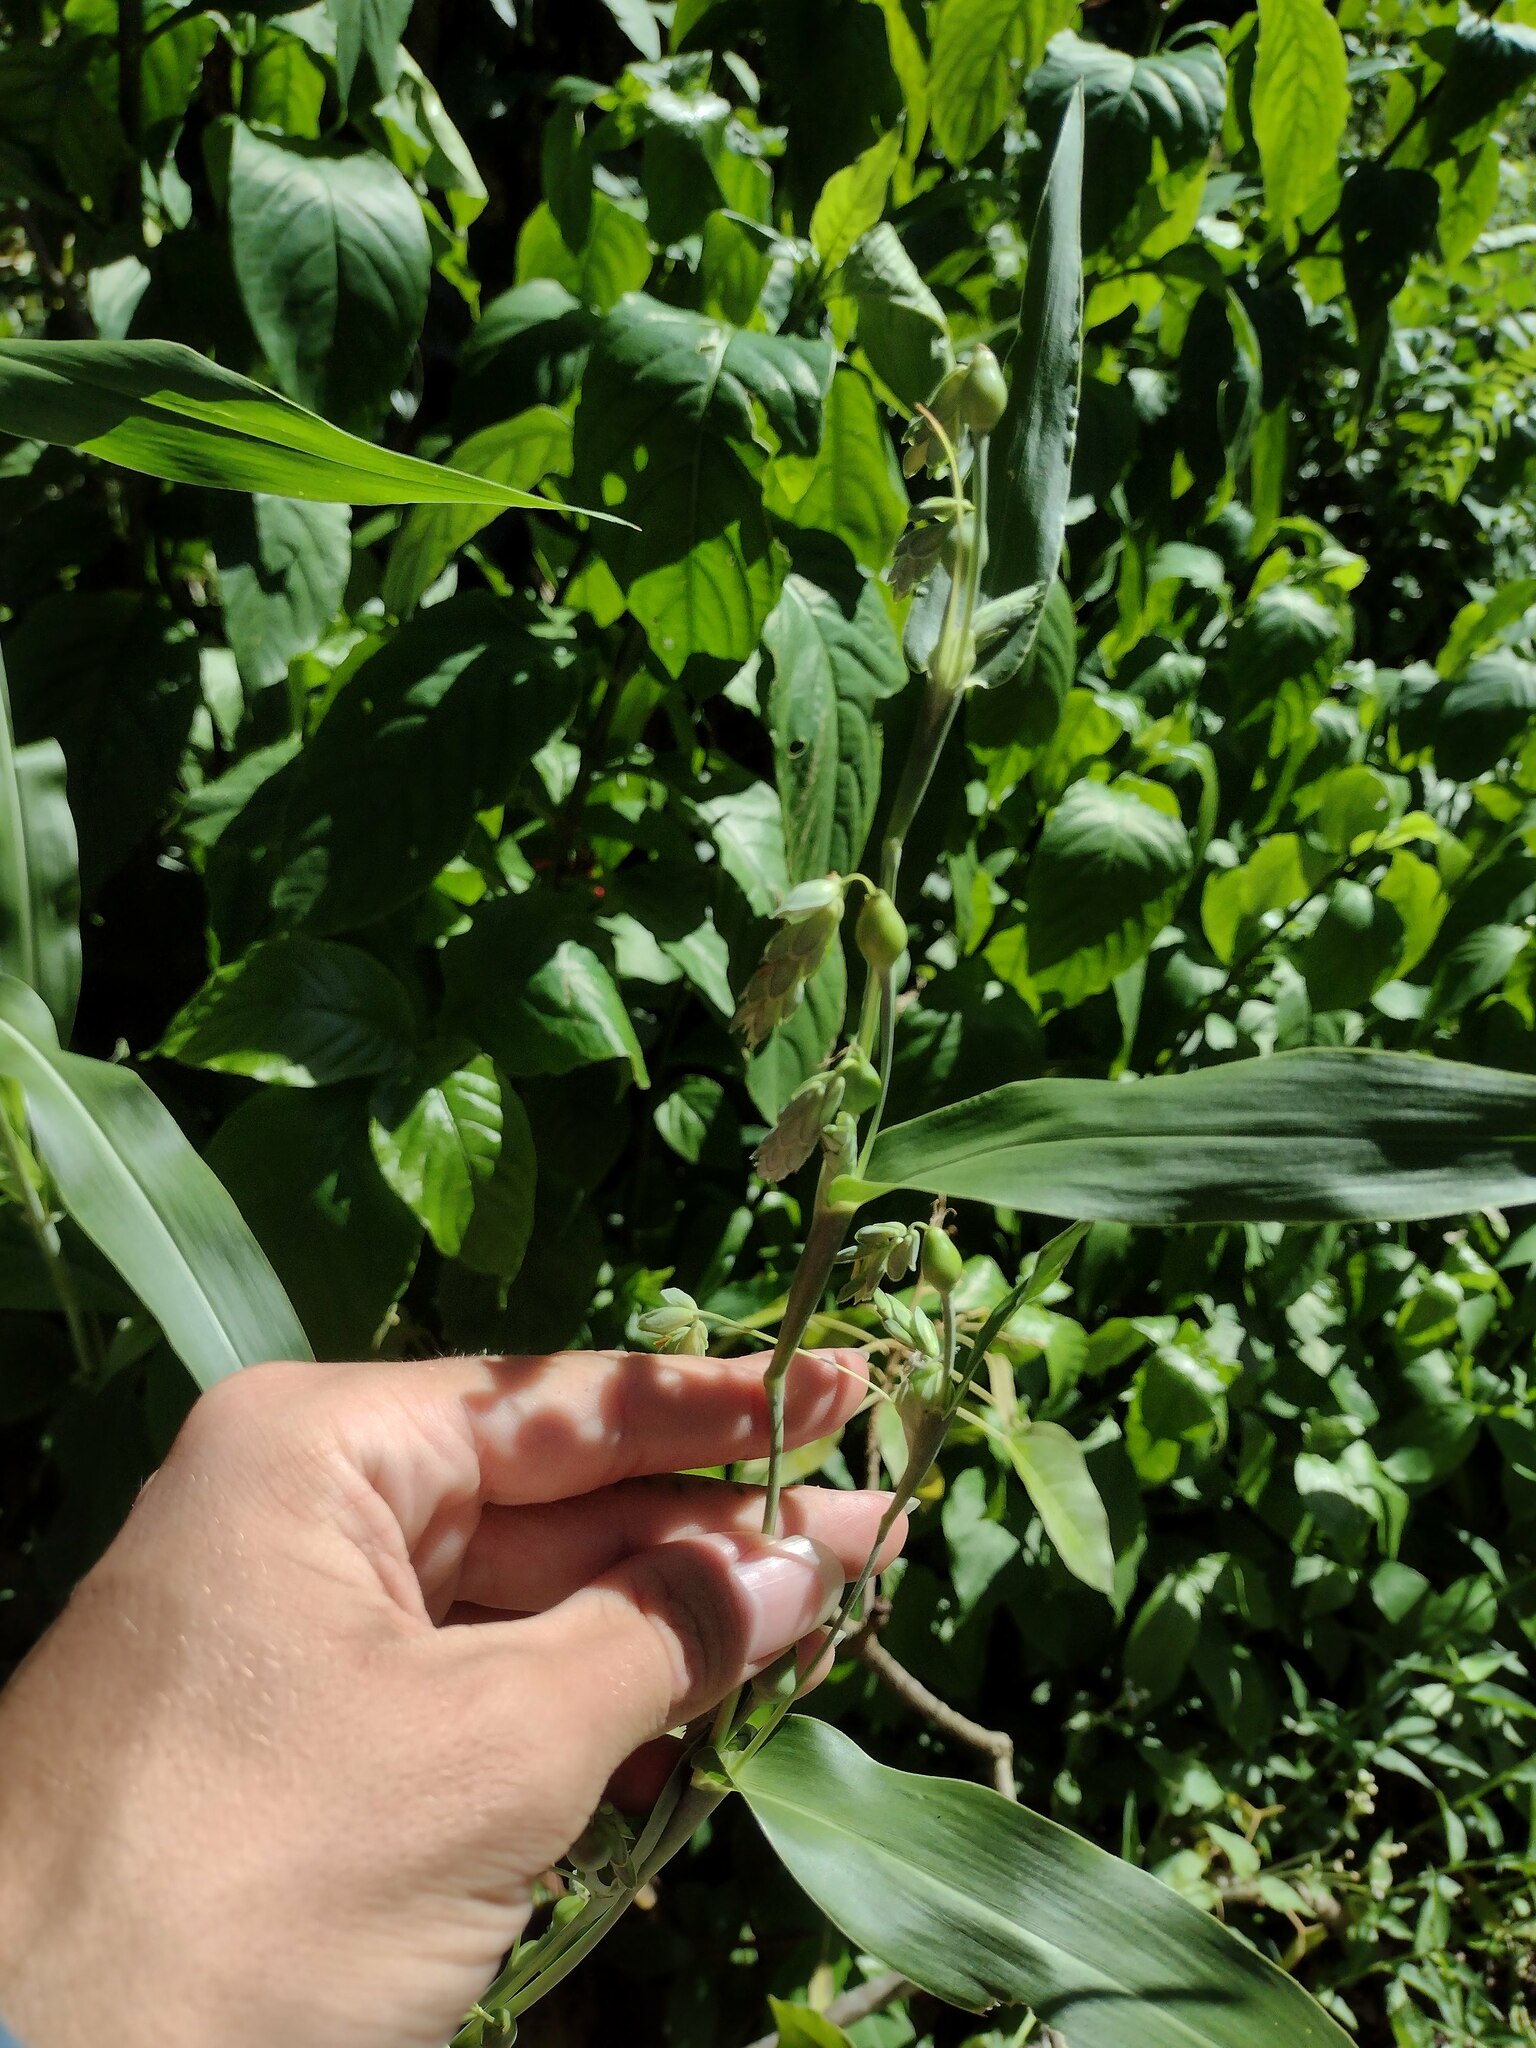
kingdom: Plantae
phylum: Tracheophyta
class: Liliopsida
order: Poales
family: Poaceae
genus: Coix
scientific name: Coix lacryma-jobi
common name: Job's tears
